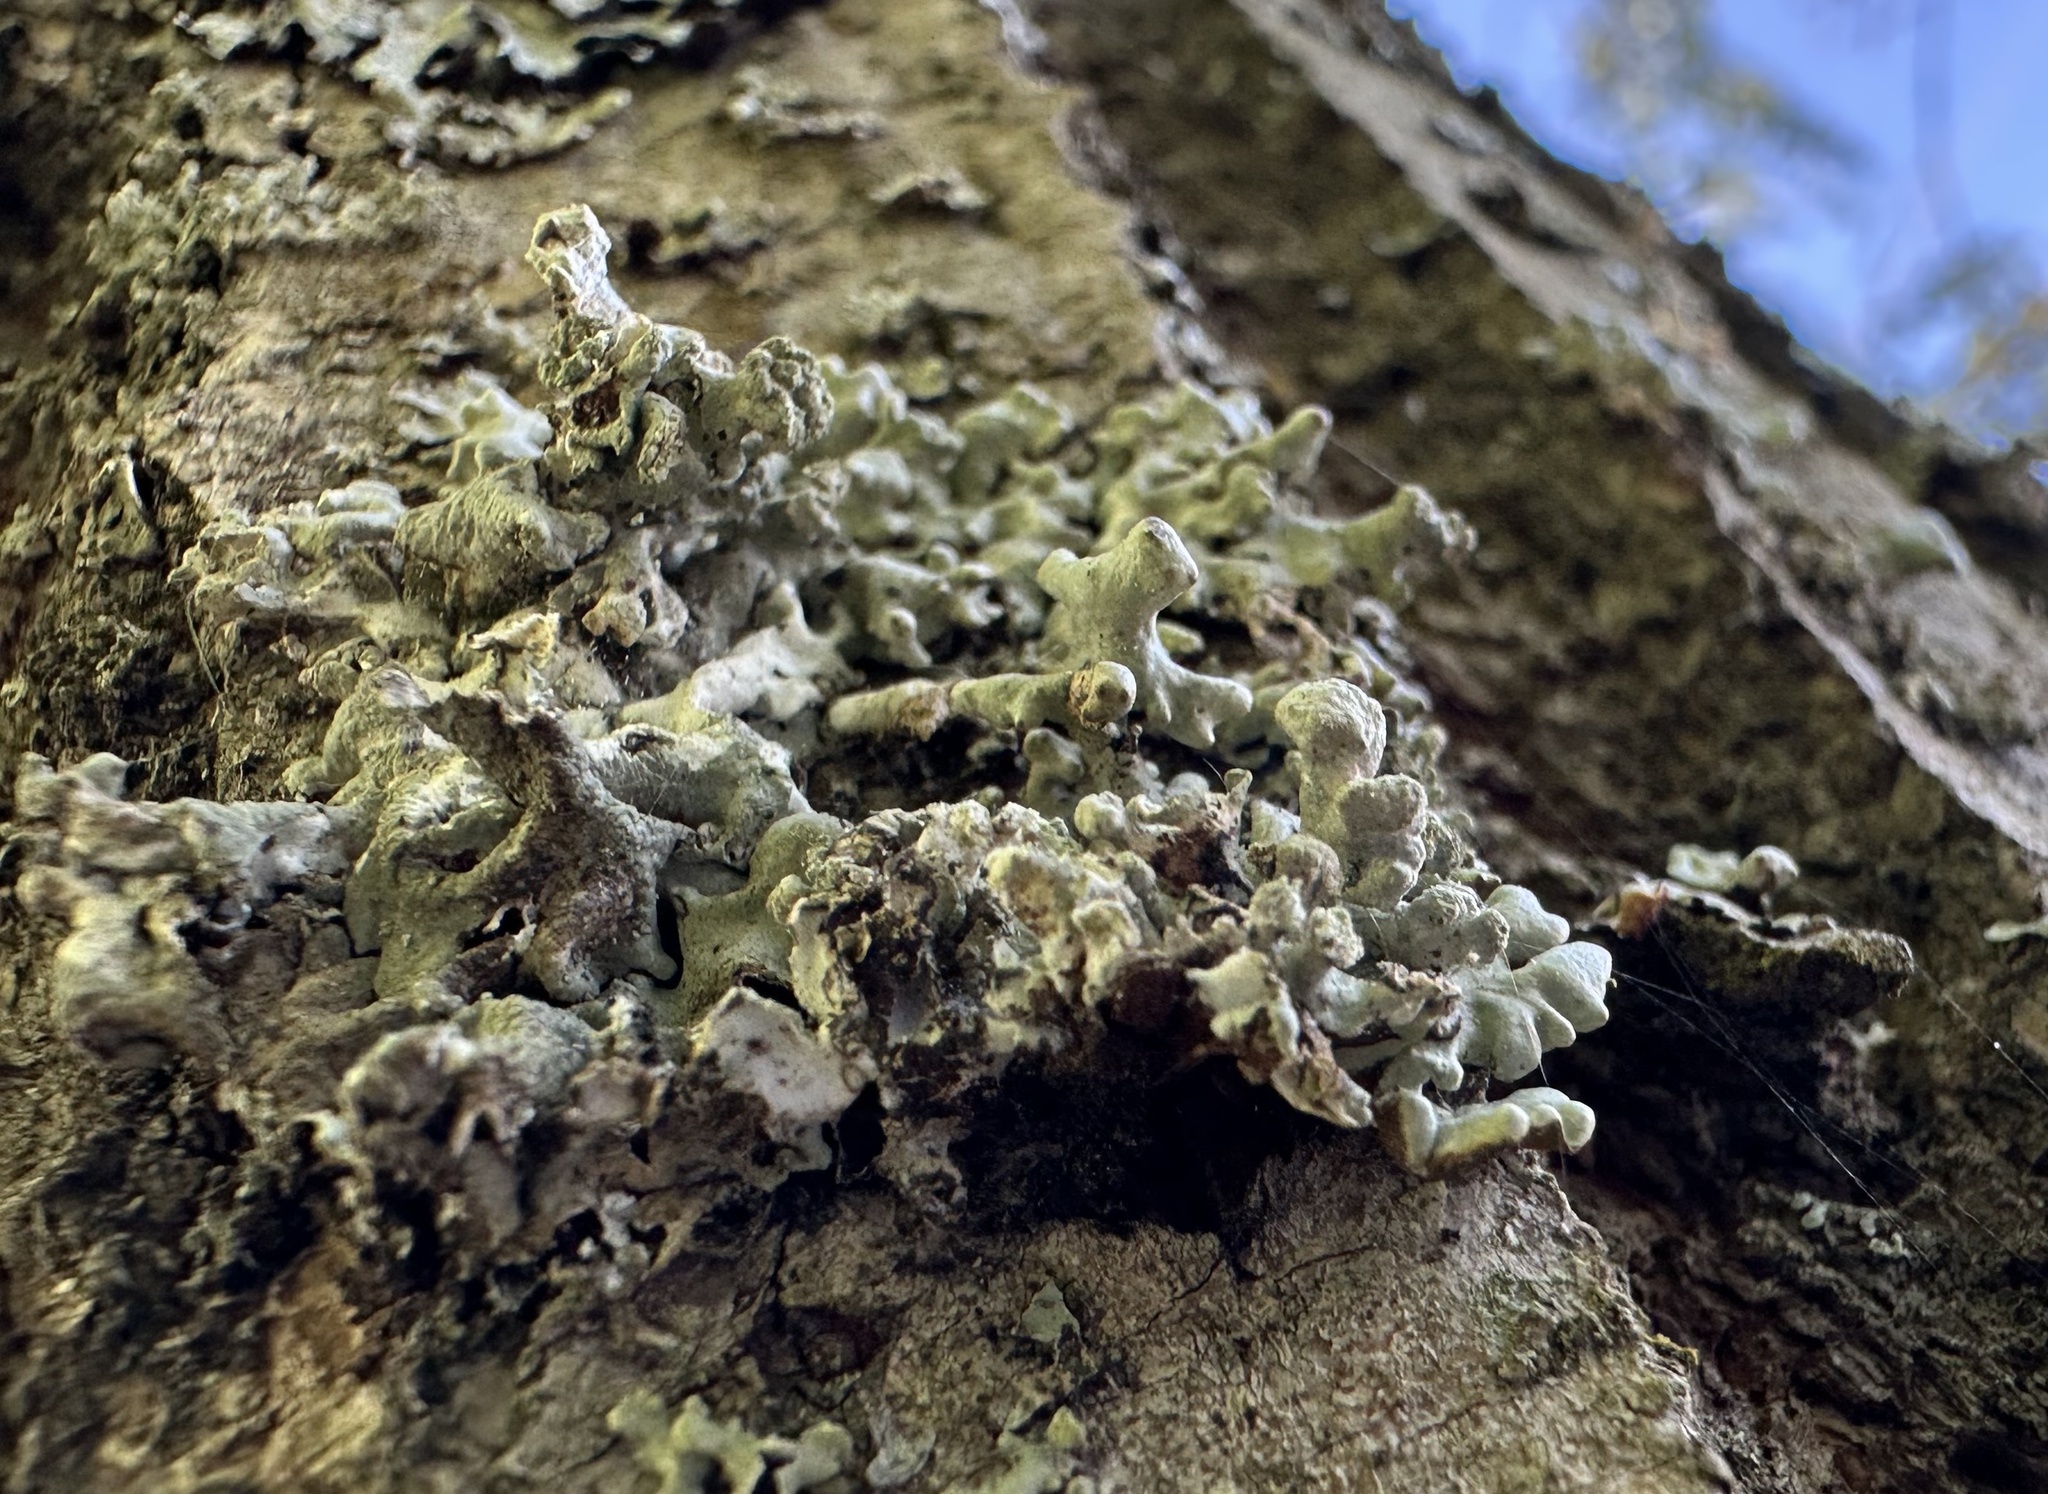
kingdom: Fungi
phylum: Ascomycota
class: Lecanoromycetes
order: Lecanorales
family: Parmeliaceae
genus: Hypogymnia
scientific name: Hypogymnia tubulosa
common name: Powder-headed tube lichen
